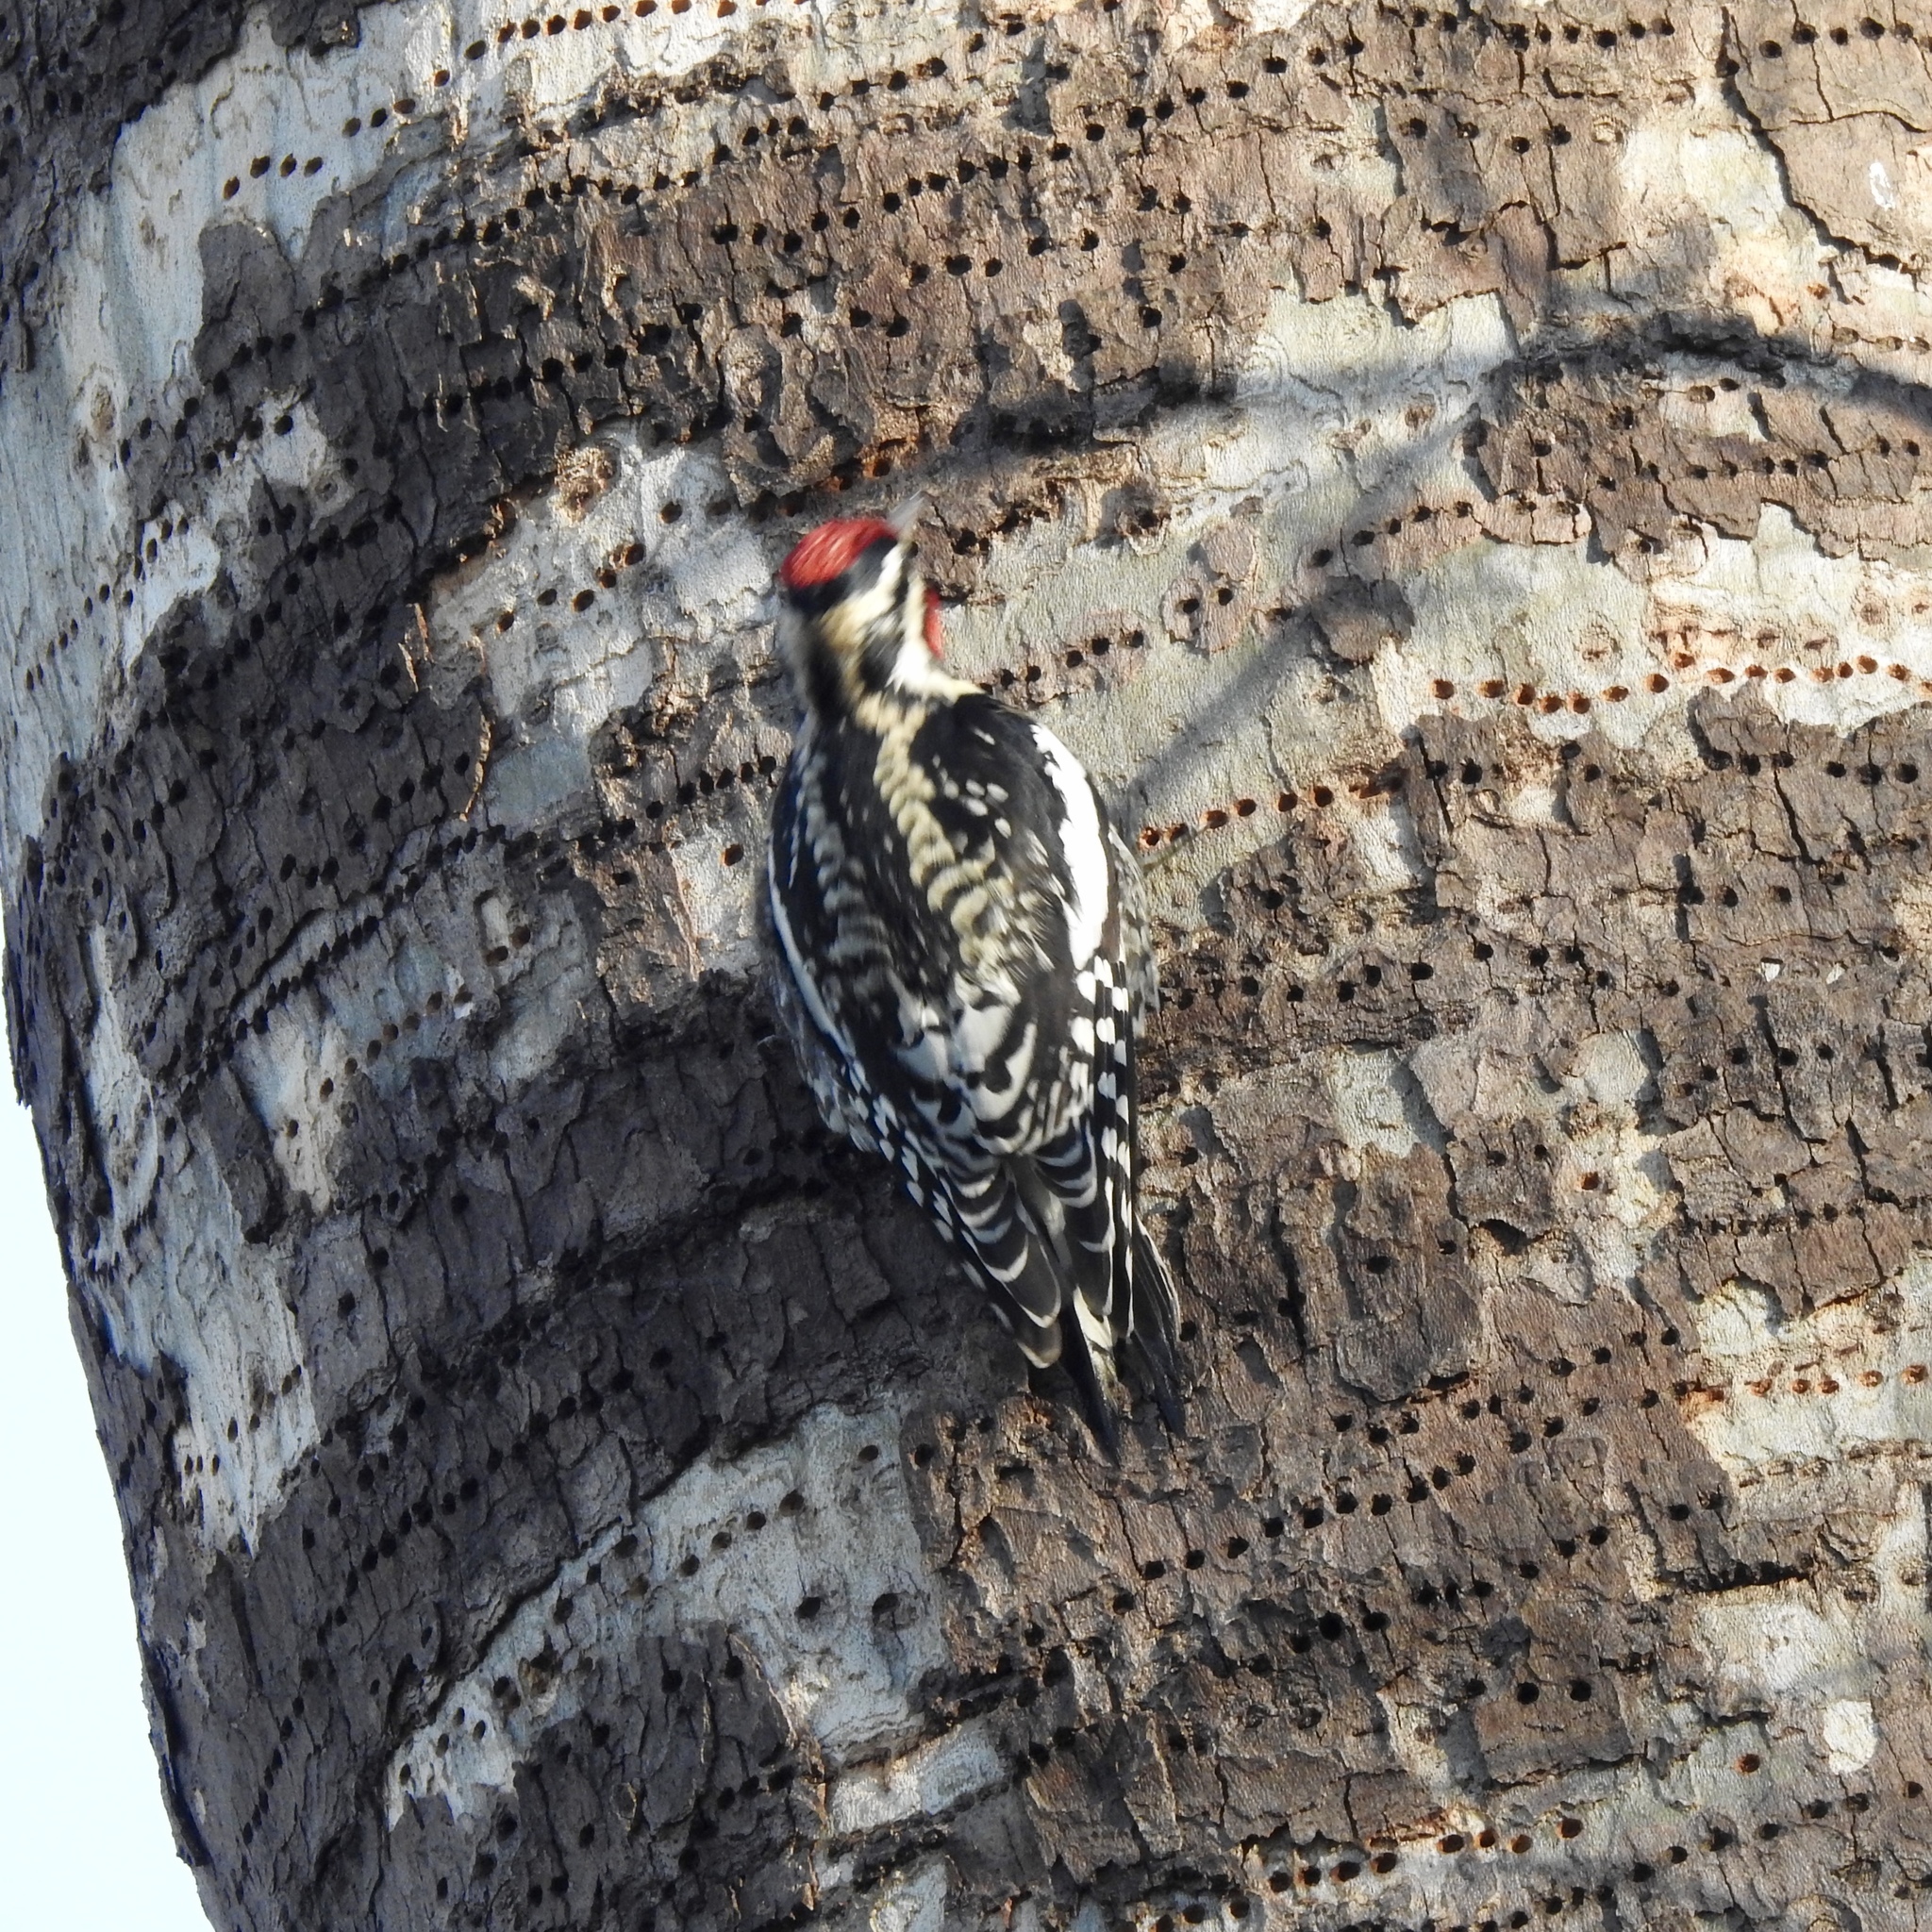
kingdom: Animalia
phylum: Chordata
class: Aves
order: Piciformes
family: Picidae
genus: Sphyrapicus
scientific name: Sphyrapicus varius
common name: Yellow-bellied sapsucker
